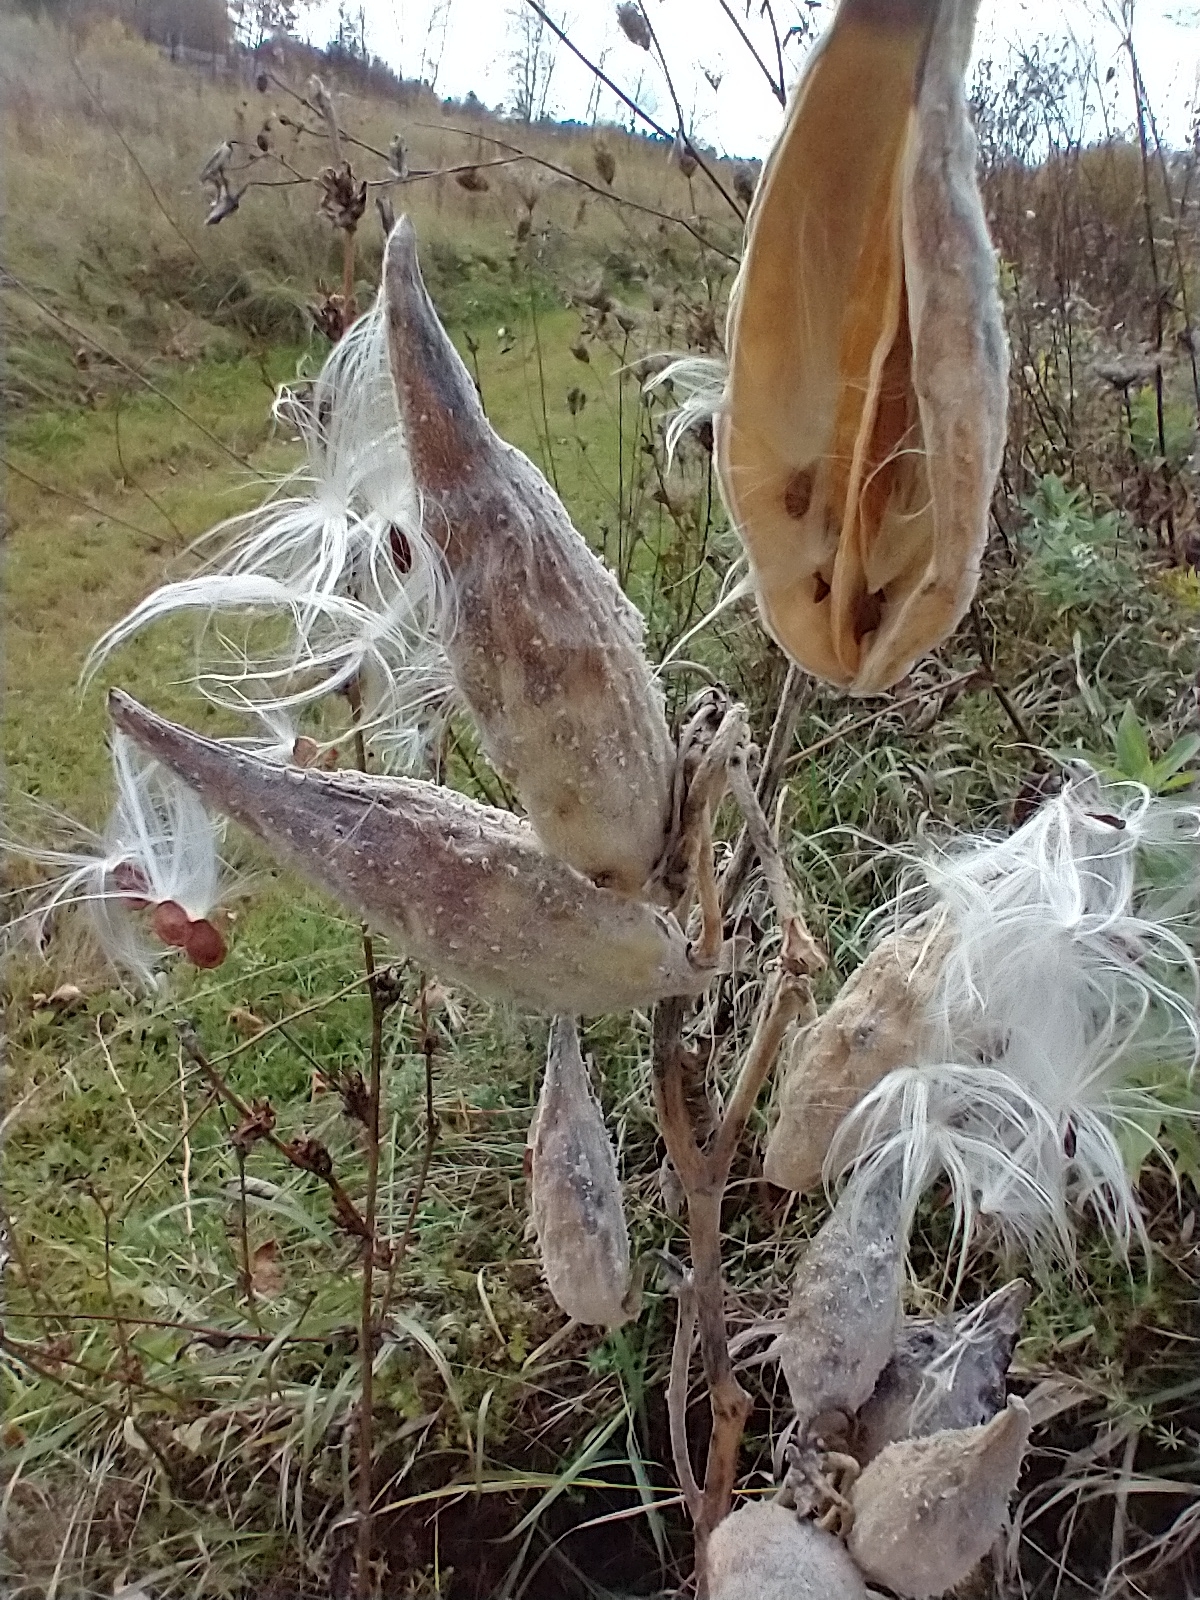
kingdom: Plantae
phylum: Tracheophyta
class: Magnoliopsida
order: Gentianales
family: Apocynaceae
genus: Asclepias
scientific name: Asclepias syriaca
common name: Common milkweed
